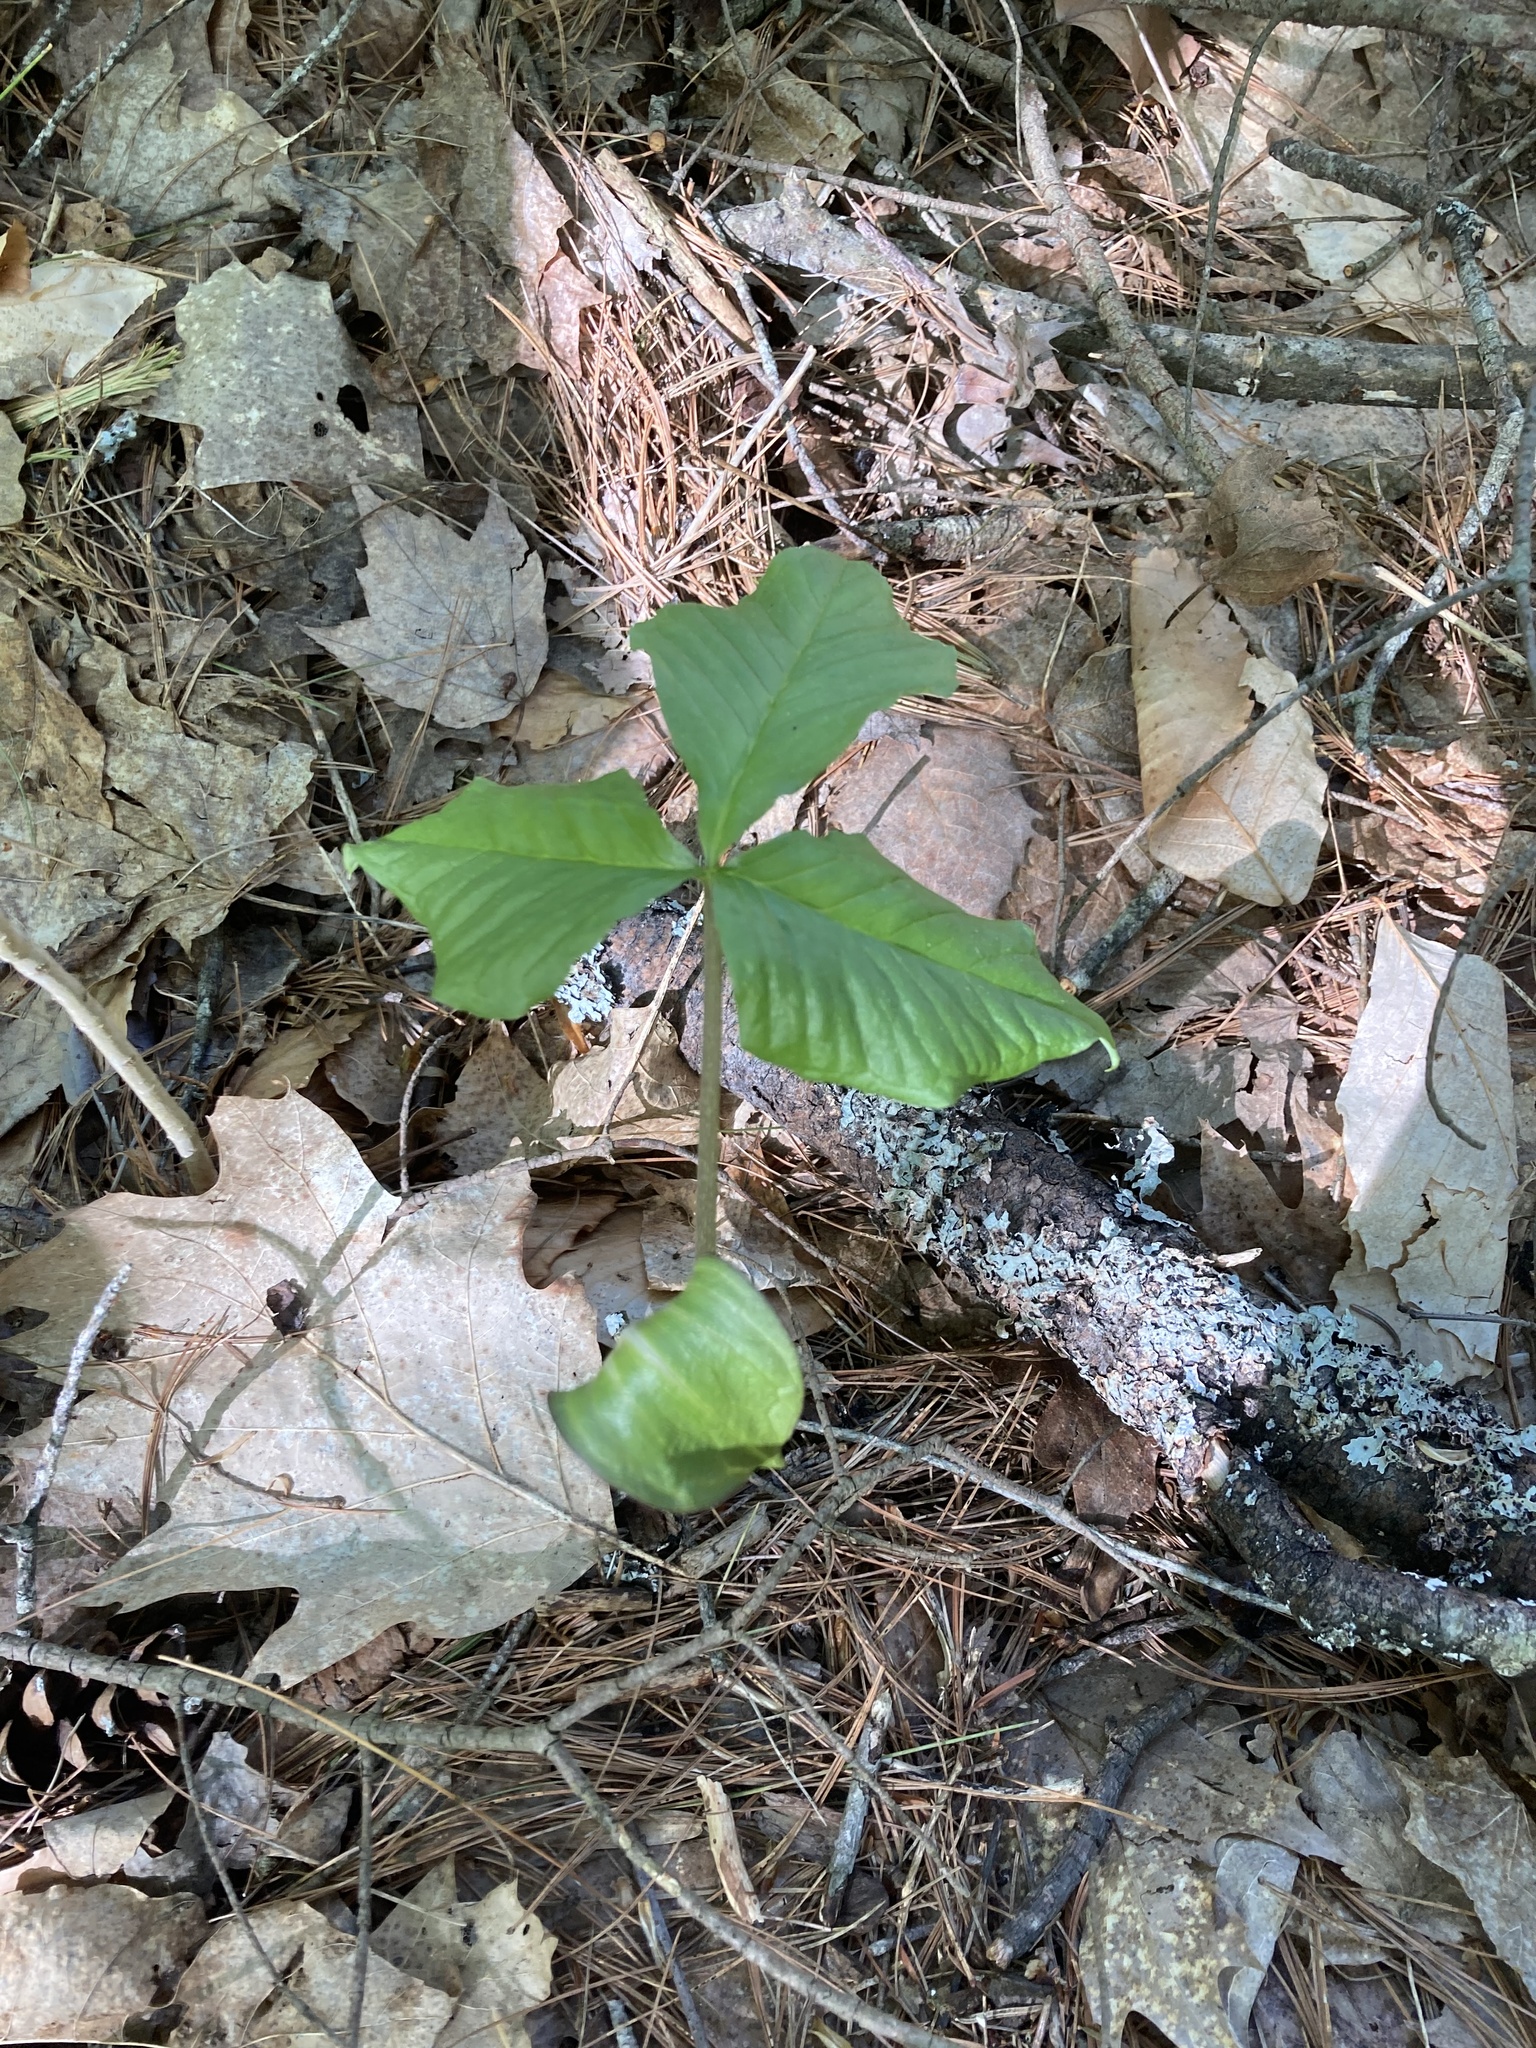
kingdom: Plantae
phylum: Tracheophyta
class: Liliopsida
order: Alismatales
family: Araceae
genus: Arisaema
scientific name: Arisaema triphyllum
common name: Jack-in-the-pulpit
